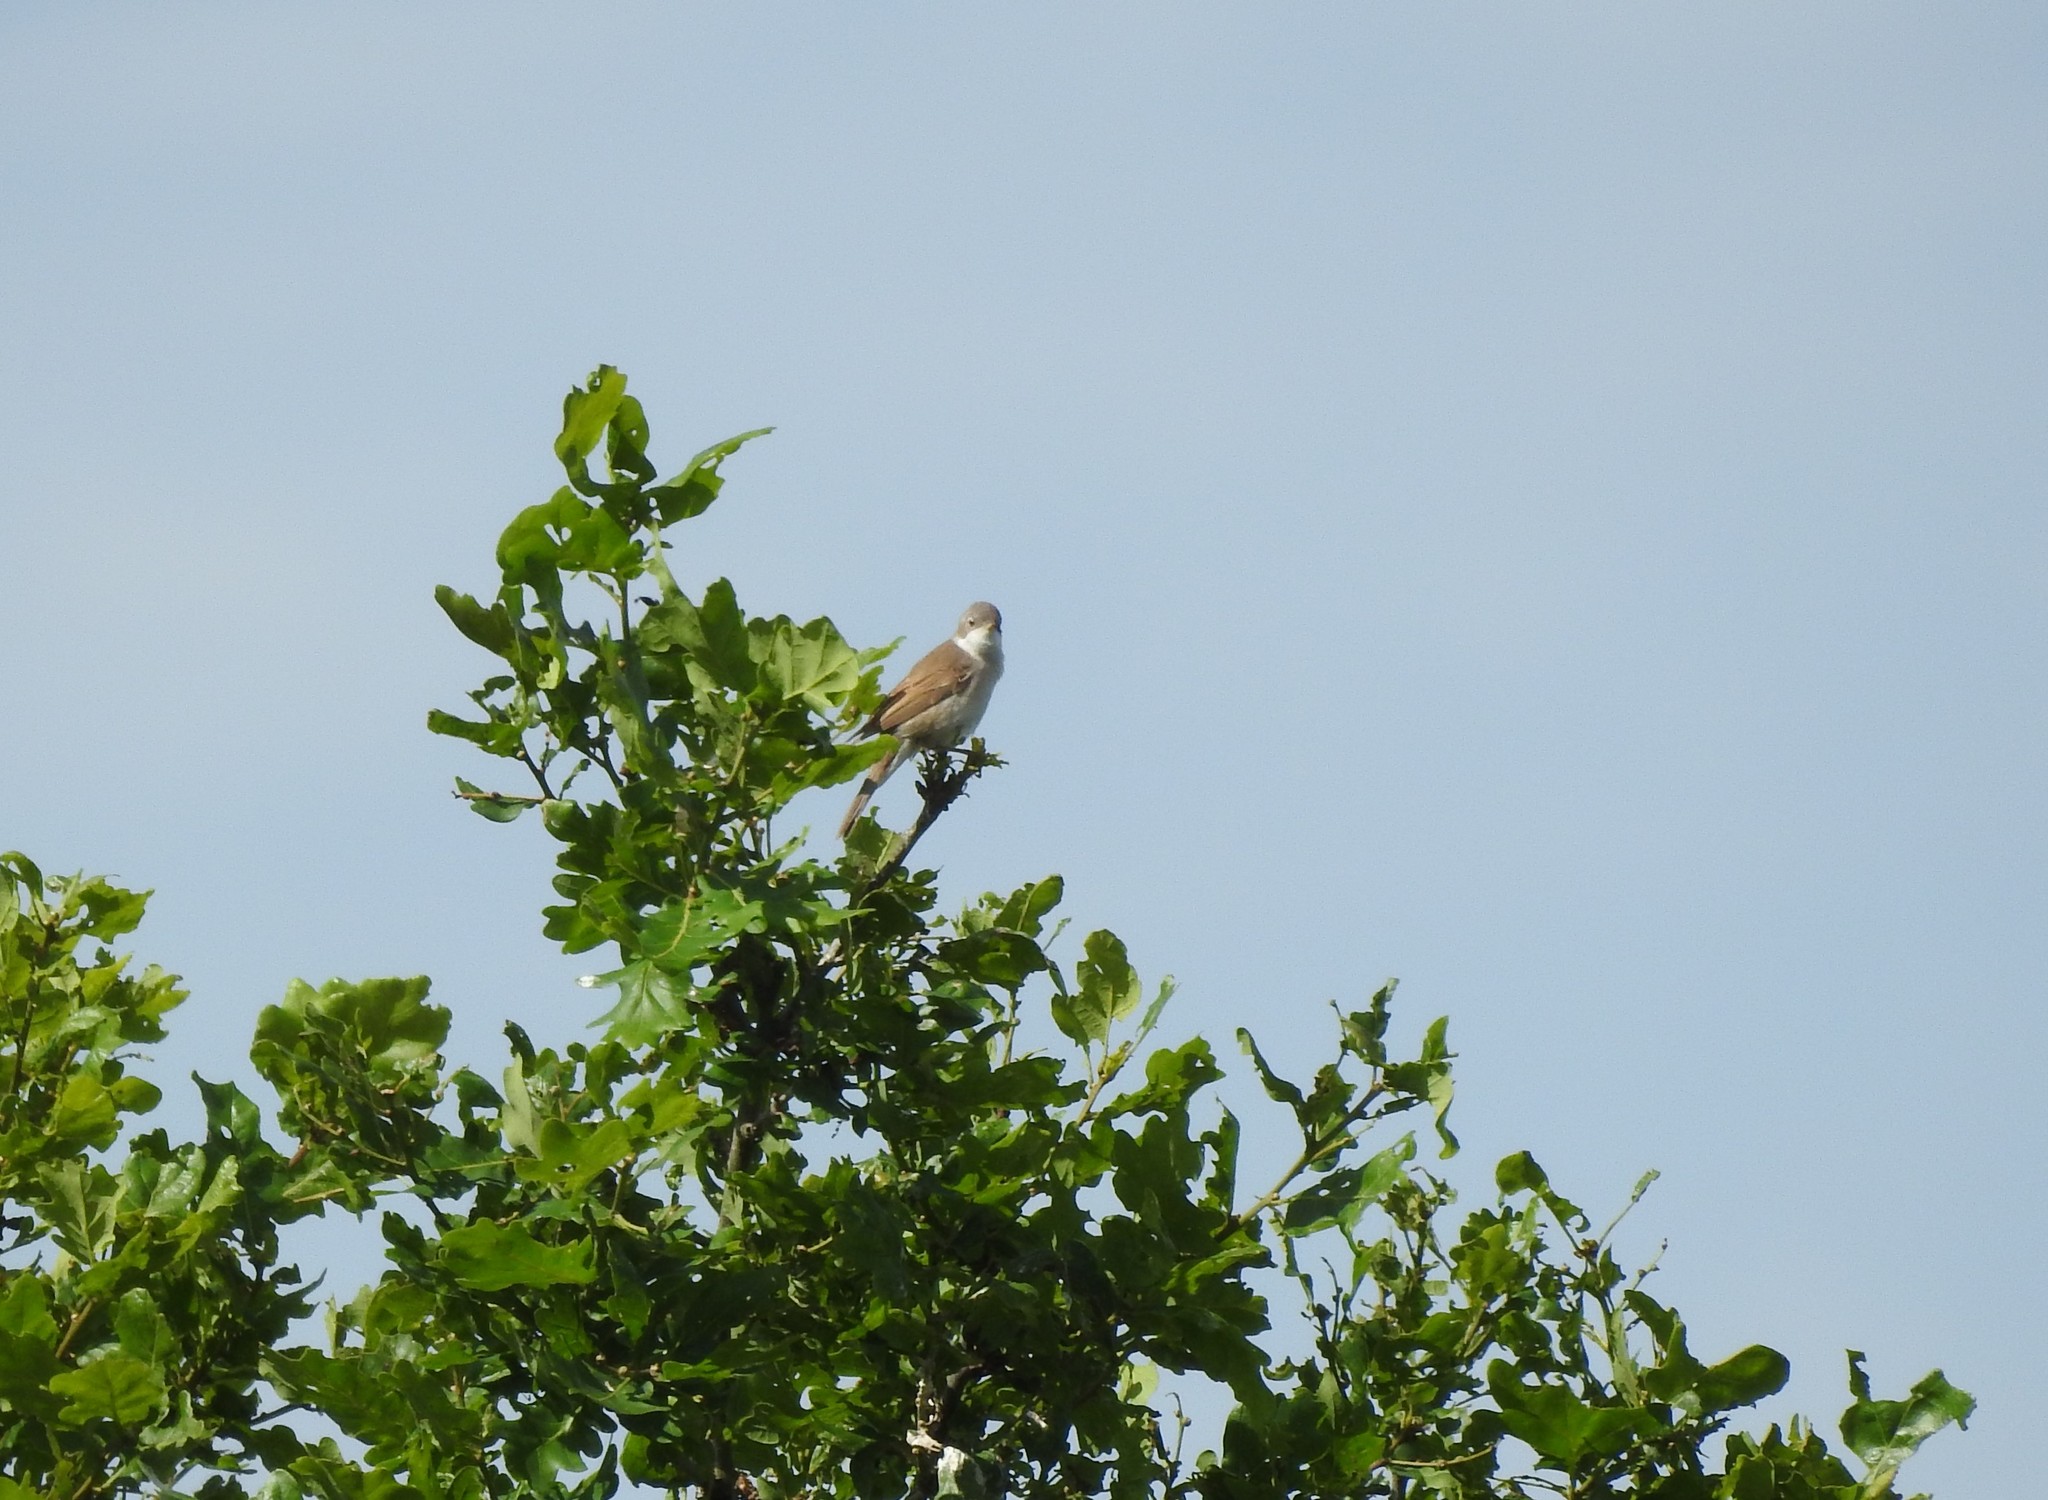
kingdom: Animalia
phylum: Chordata
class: Aves
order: Passeriformes
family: Sylviidae
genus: Sylvia
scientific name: Sylvia communis
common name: Common whitethroat
